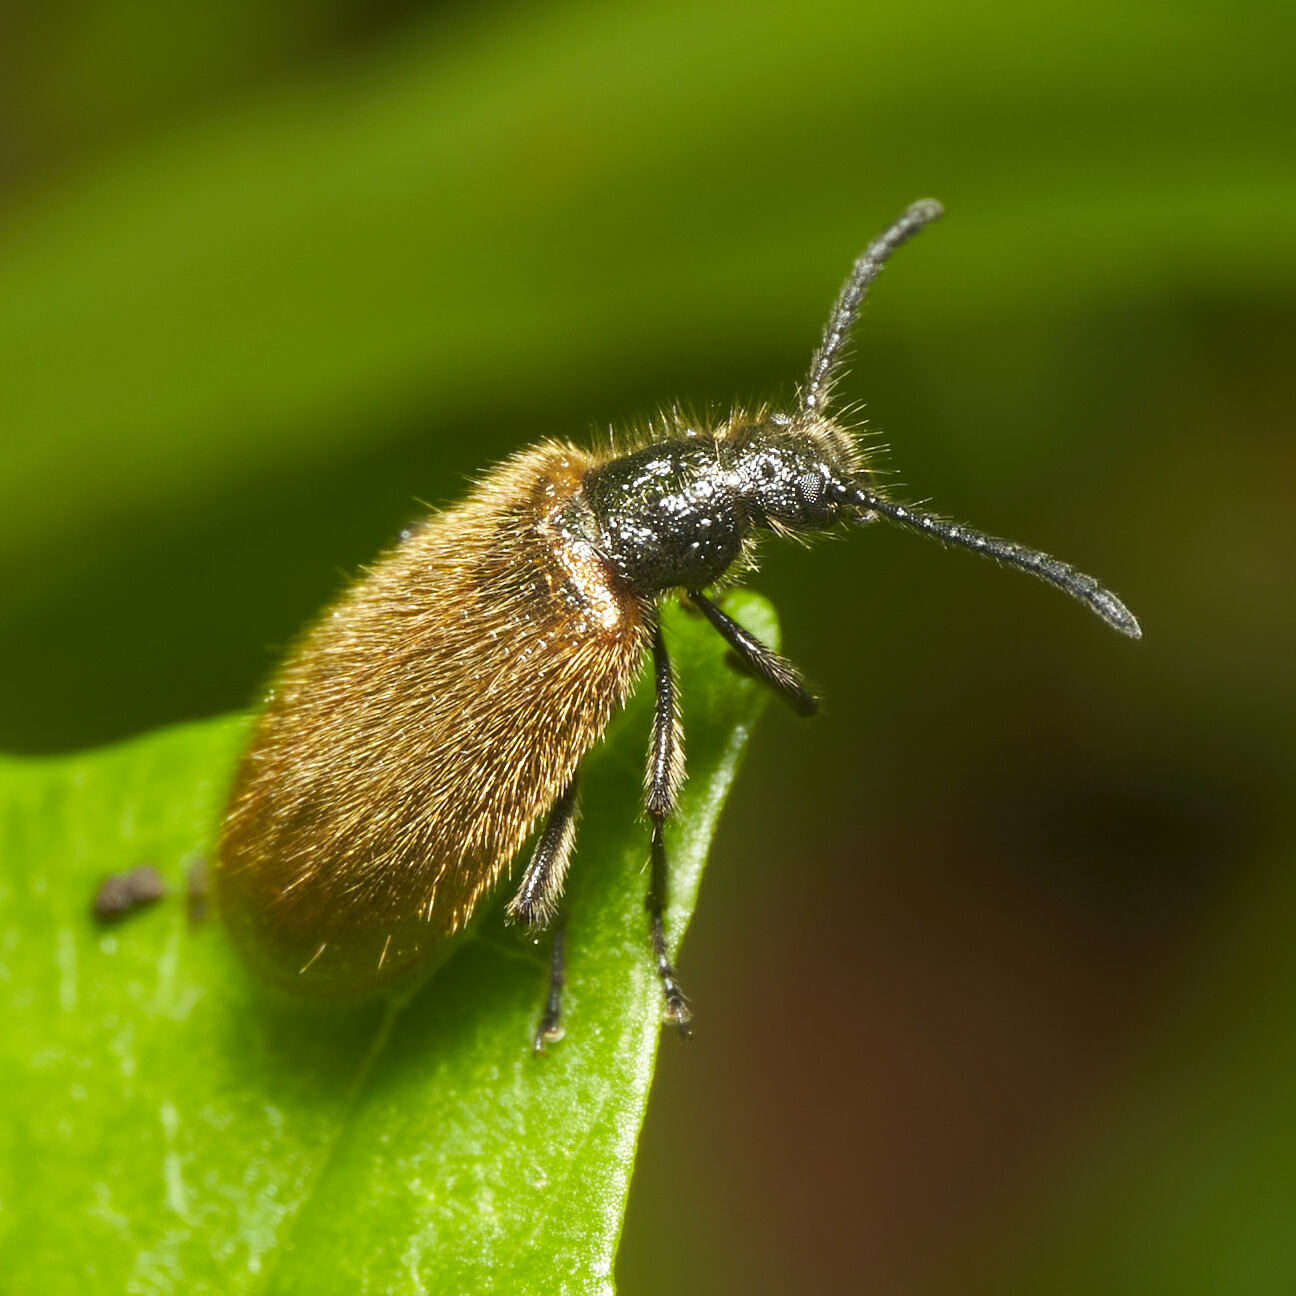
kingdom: Animalia
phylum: Arthropoda
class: Insecta
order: Coleoptera
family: Tenebrionidae
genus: Lagria
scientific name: Lagria hirta
